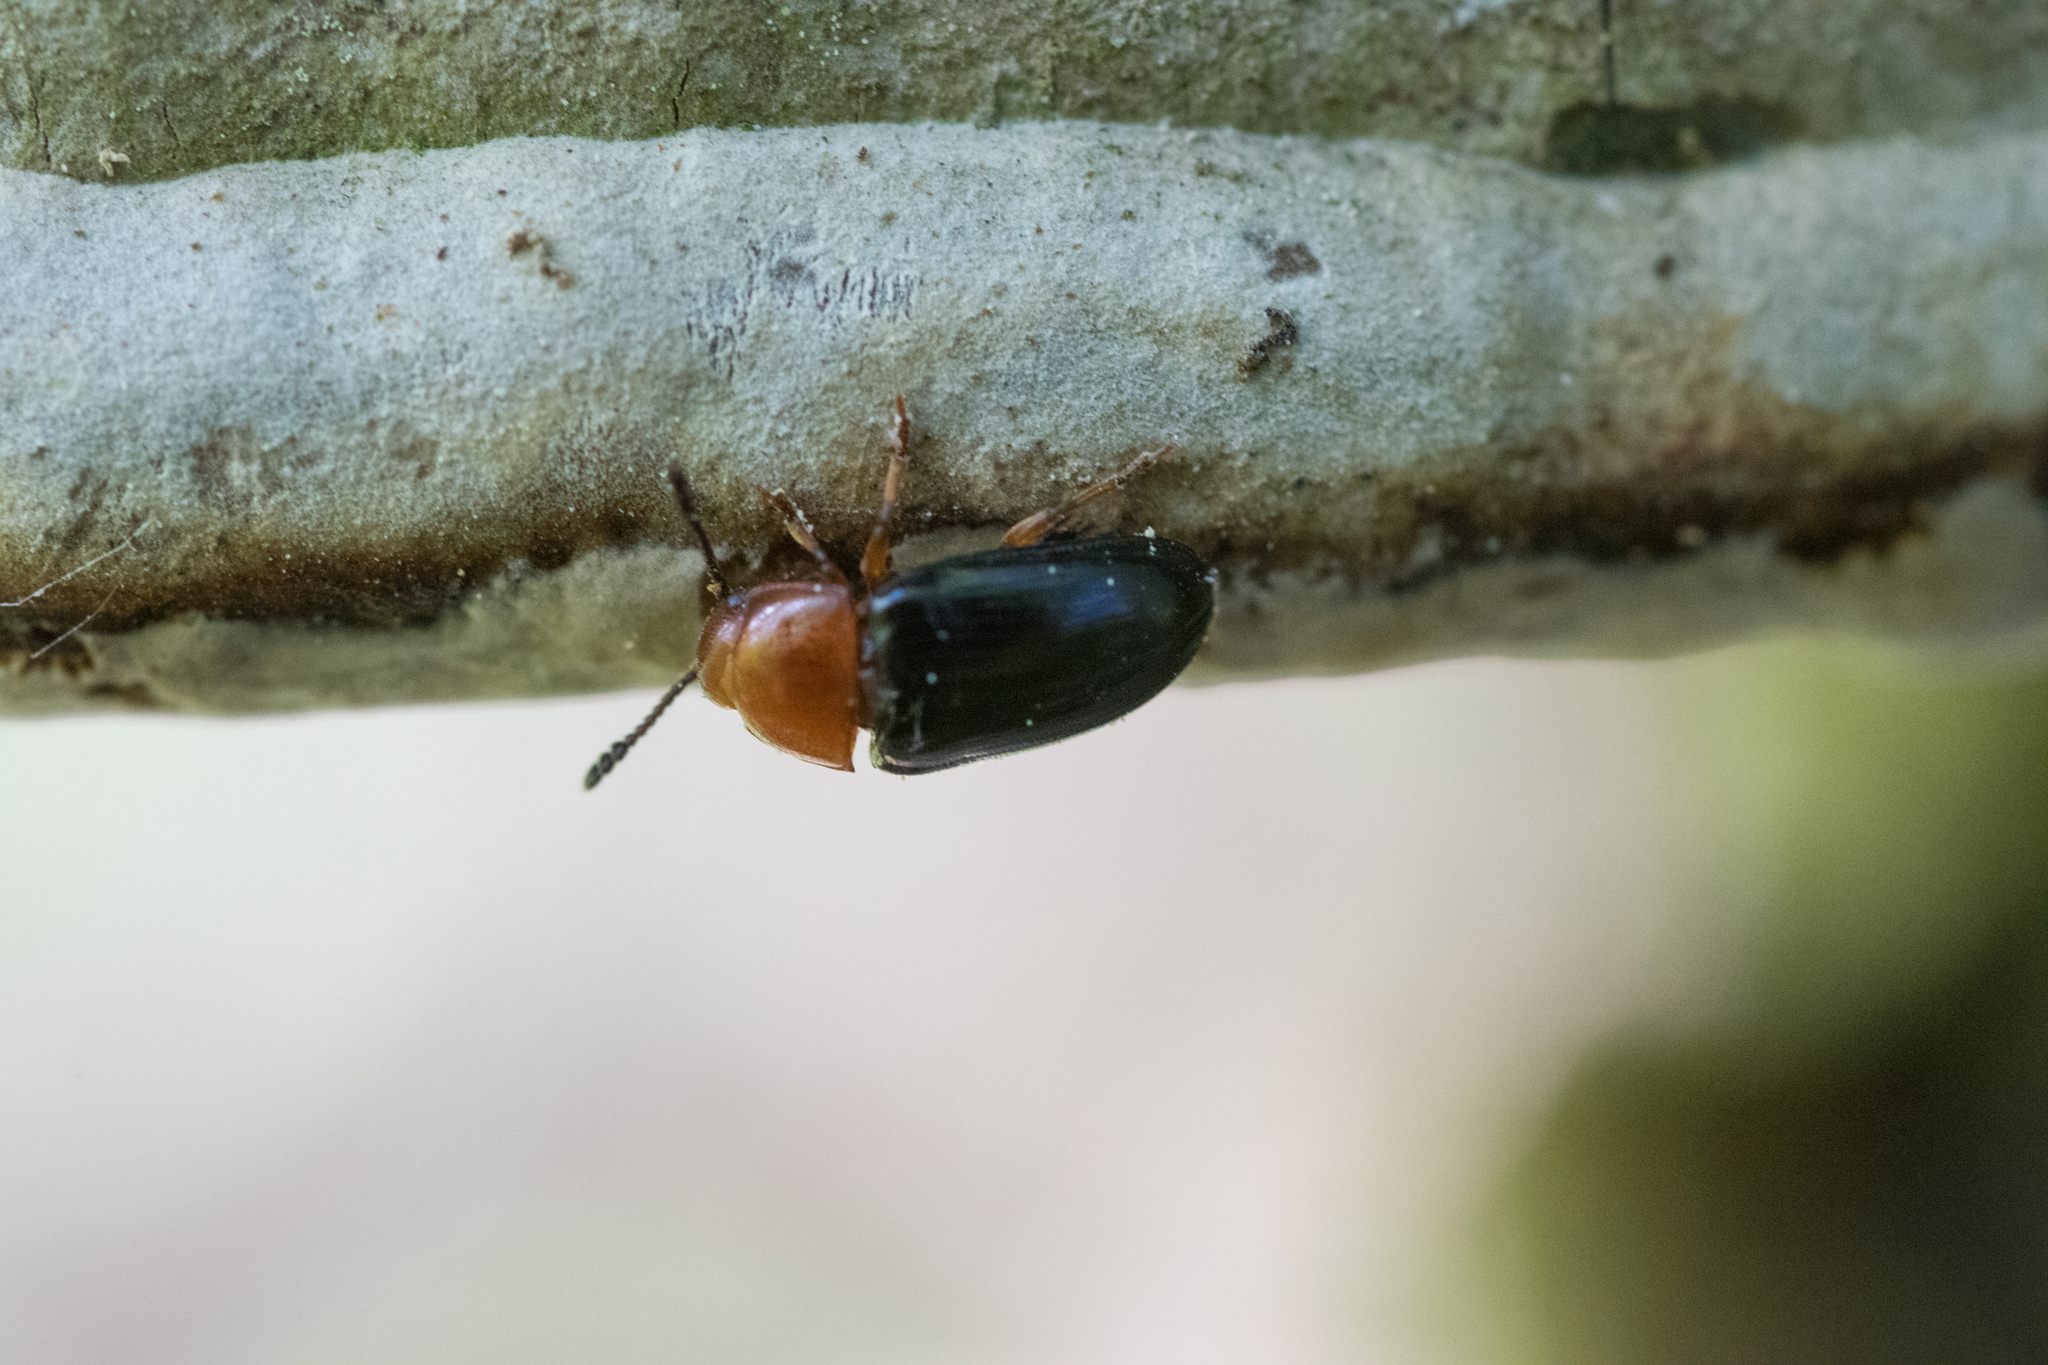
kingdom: Animalia
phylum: Arthropoda
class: Insecta
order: Coleoptera
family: Erotylidae
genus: Triplax
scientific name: Triplax russica
